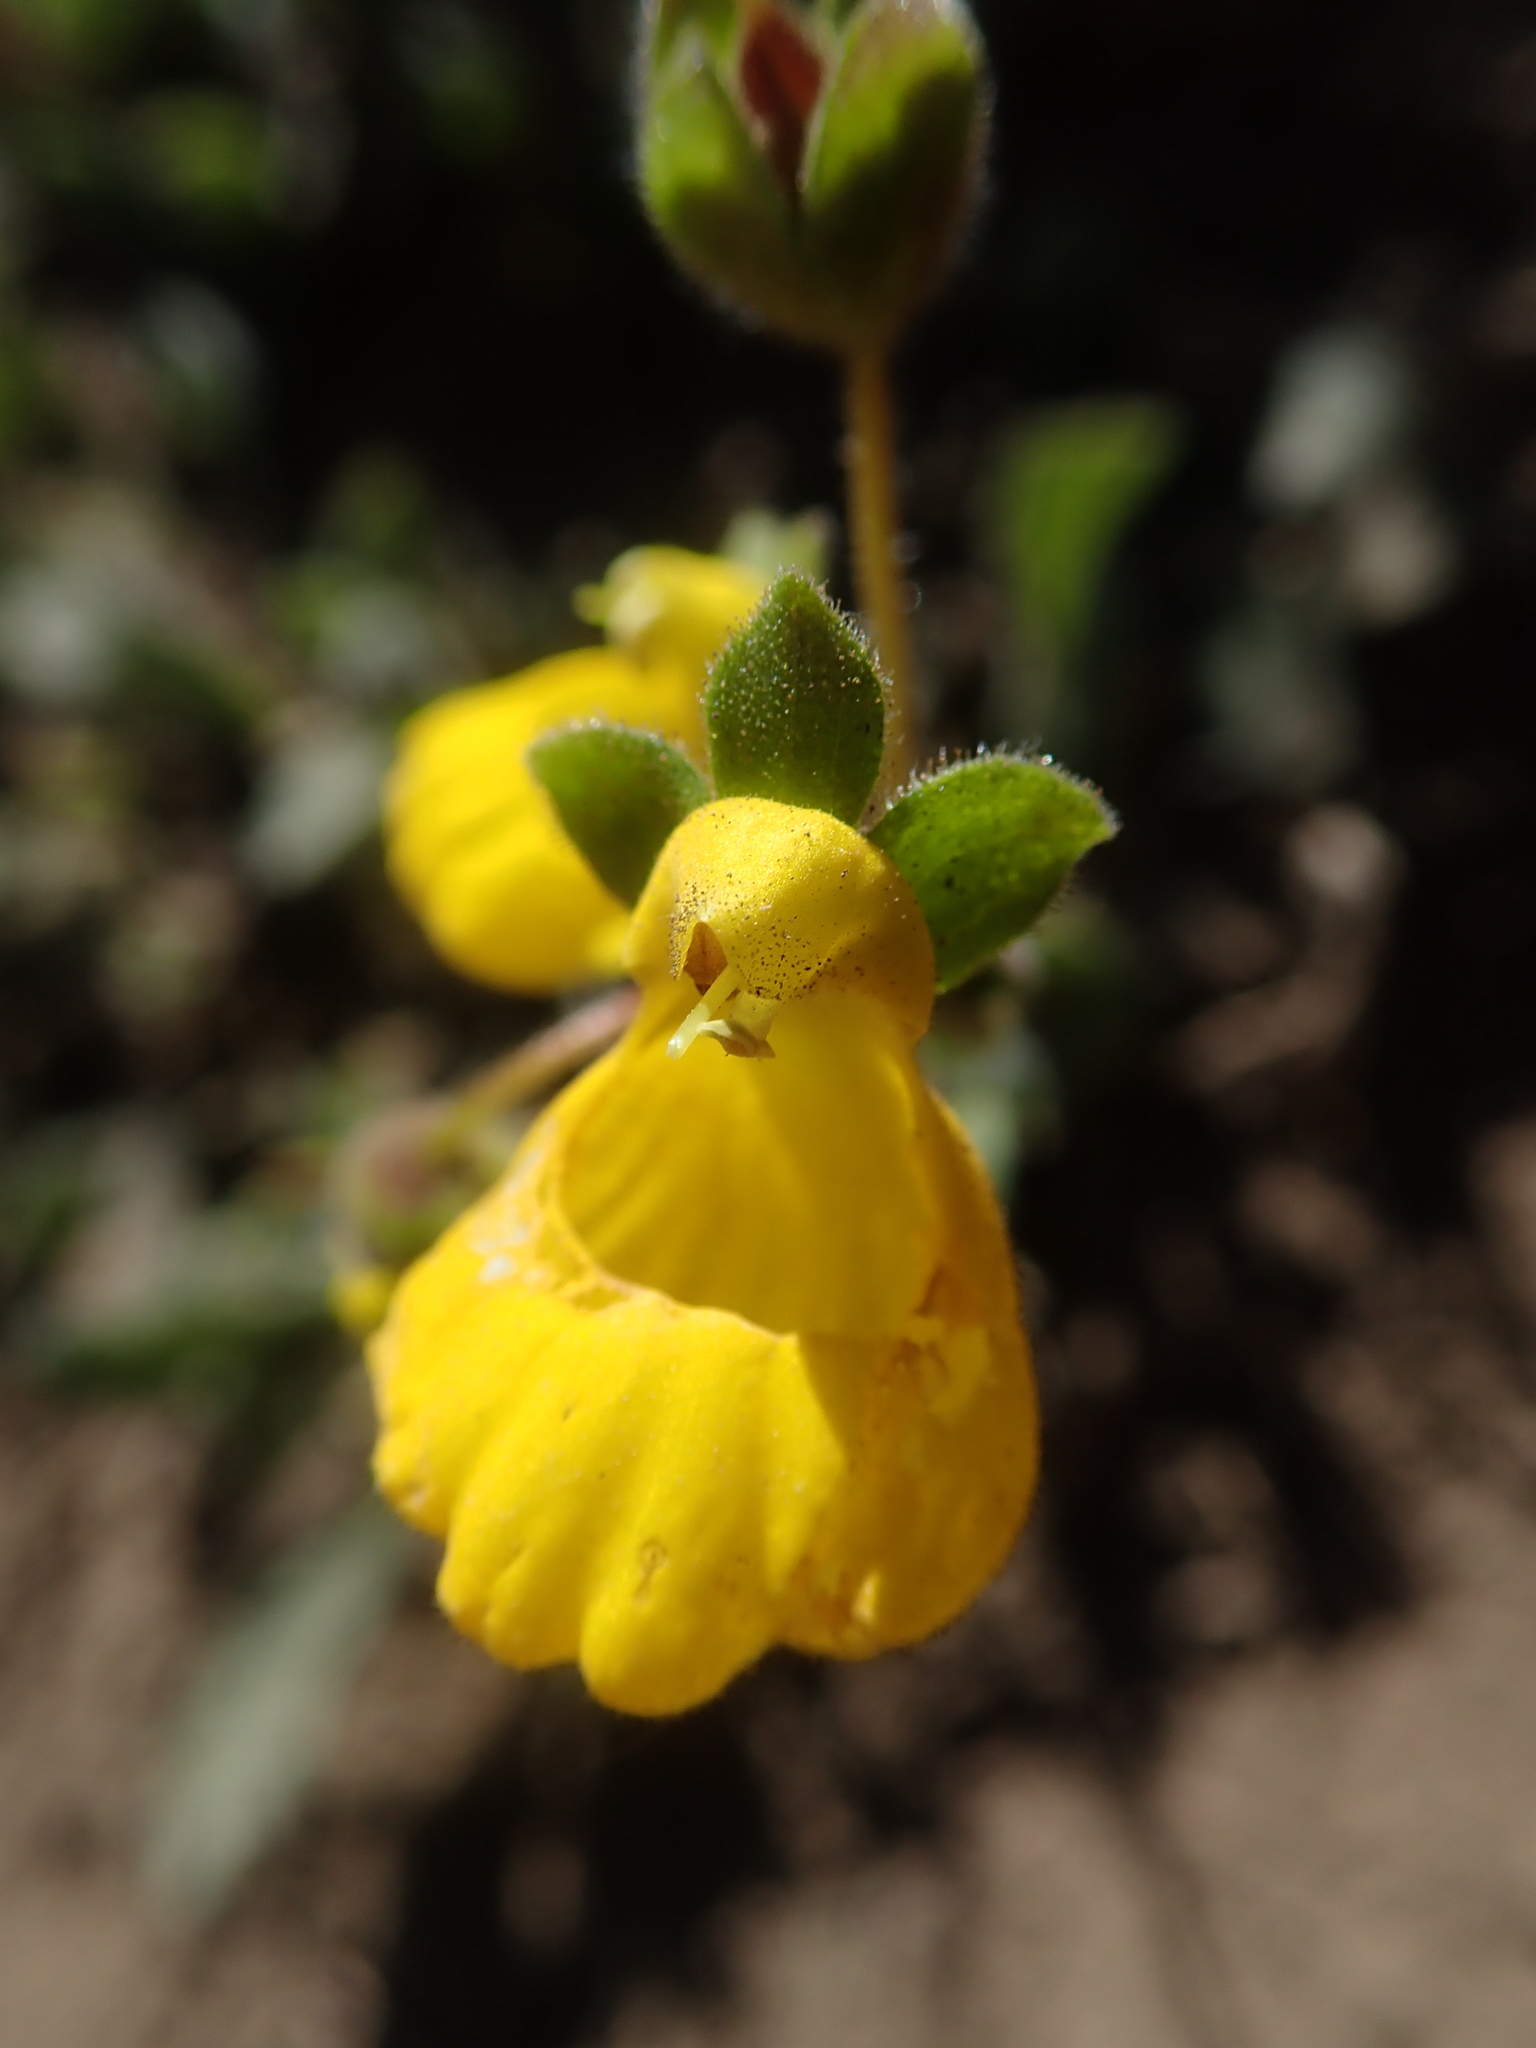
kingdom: Plantae
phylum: Tracheophyta
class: Magnoliopsida
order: Lamiales
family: Calceolariaceae
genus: Calceolaria
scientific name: Calceolaria corymbosa
